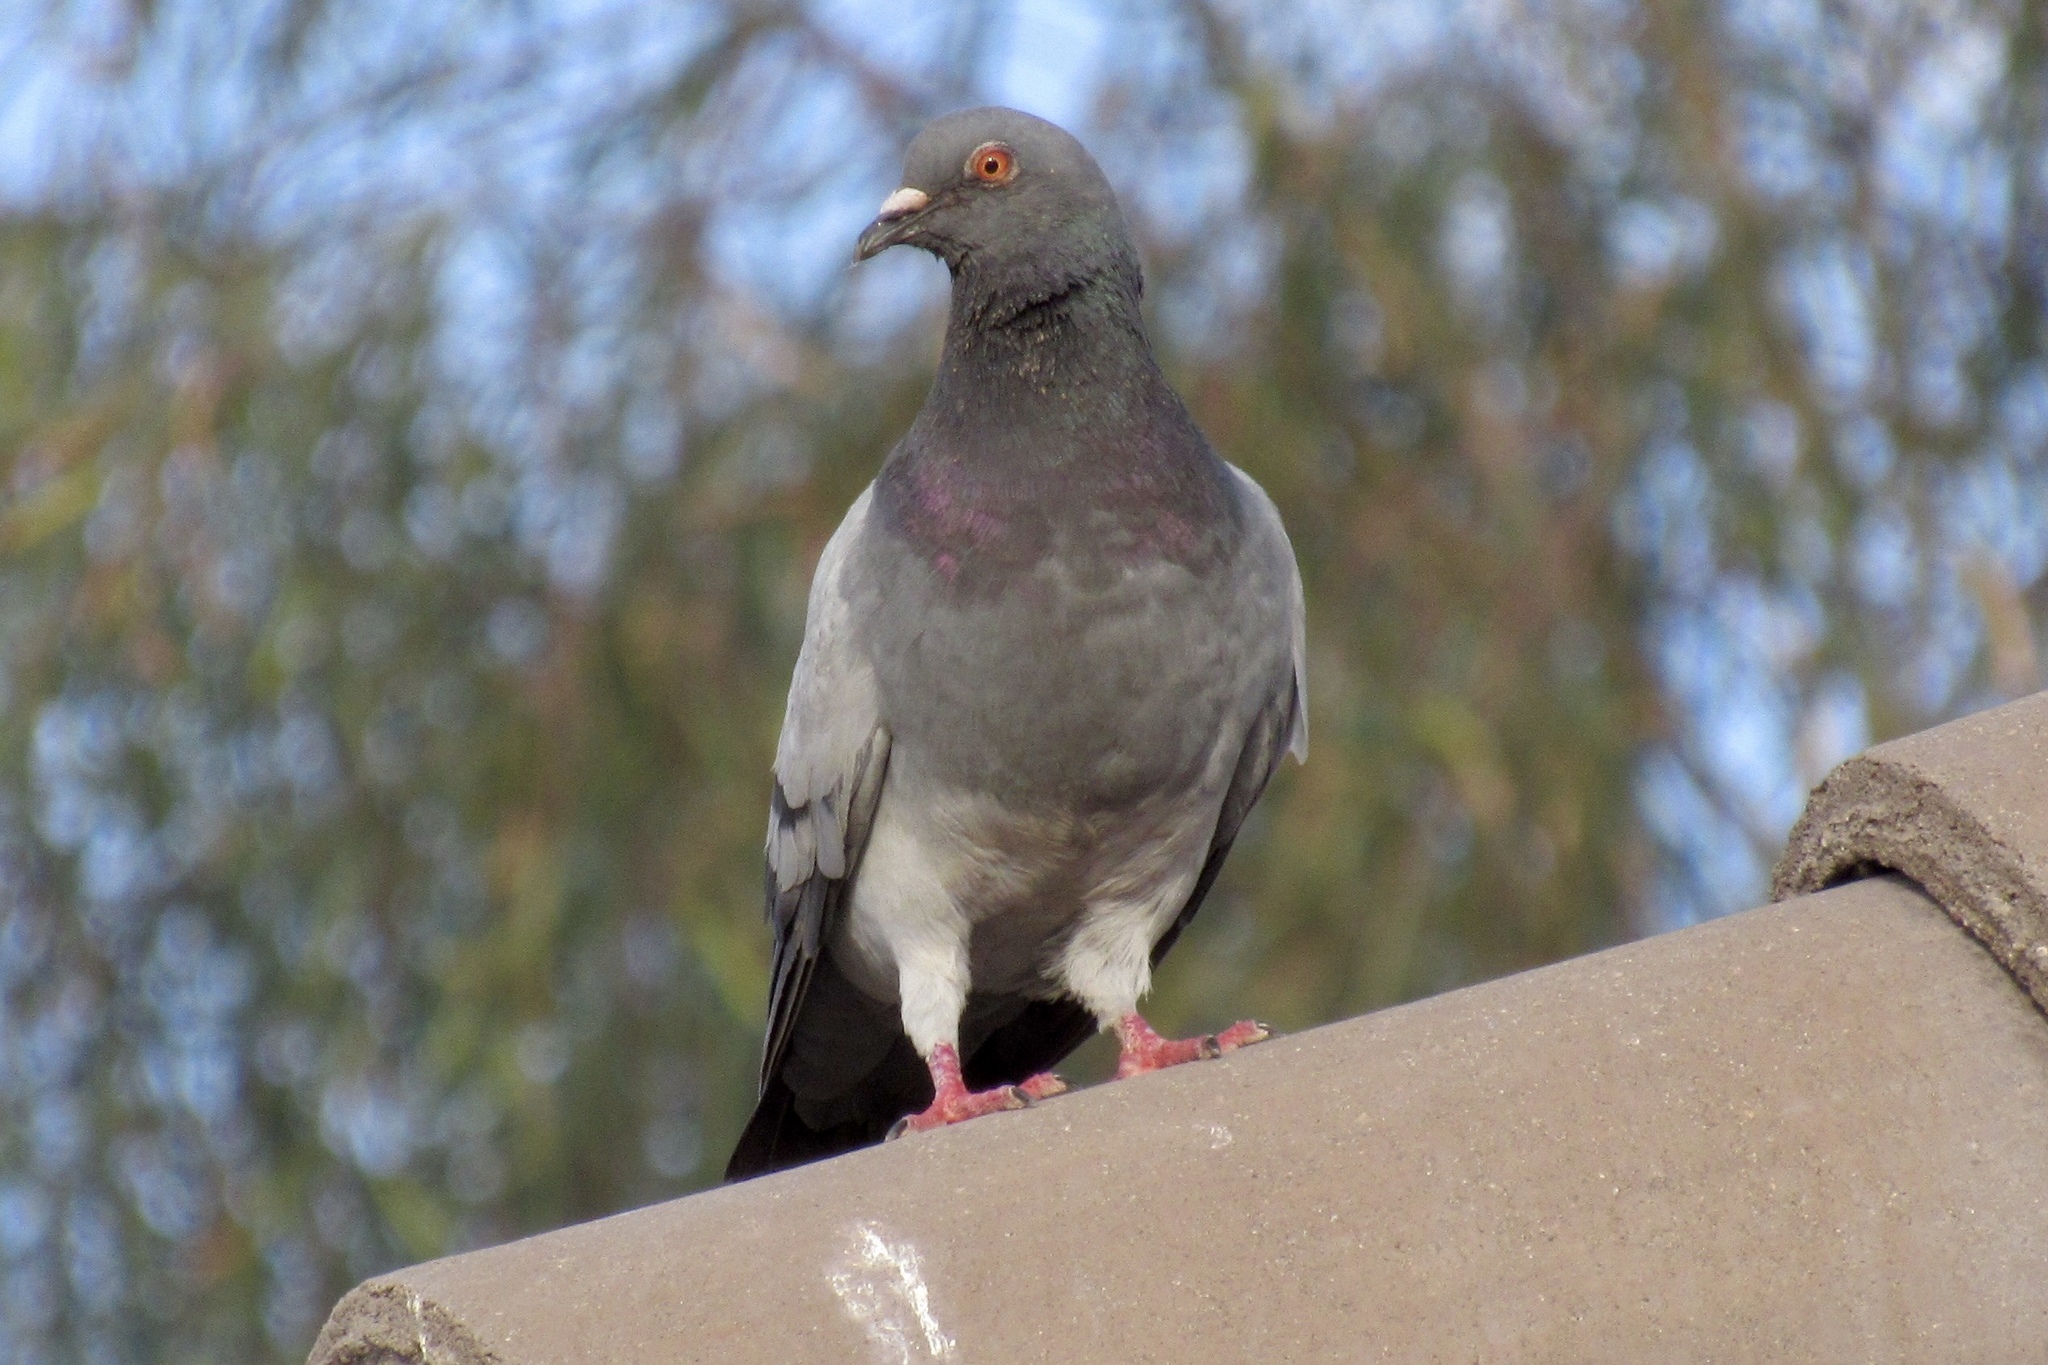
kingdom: Animalia
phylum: Chordata
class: Aves
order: Columbiformes
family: Columbidae
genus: Columba
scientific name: Columba livia
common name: Rock pigeon
